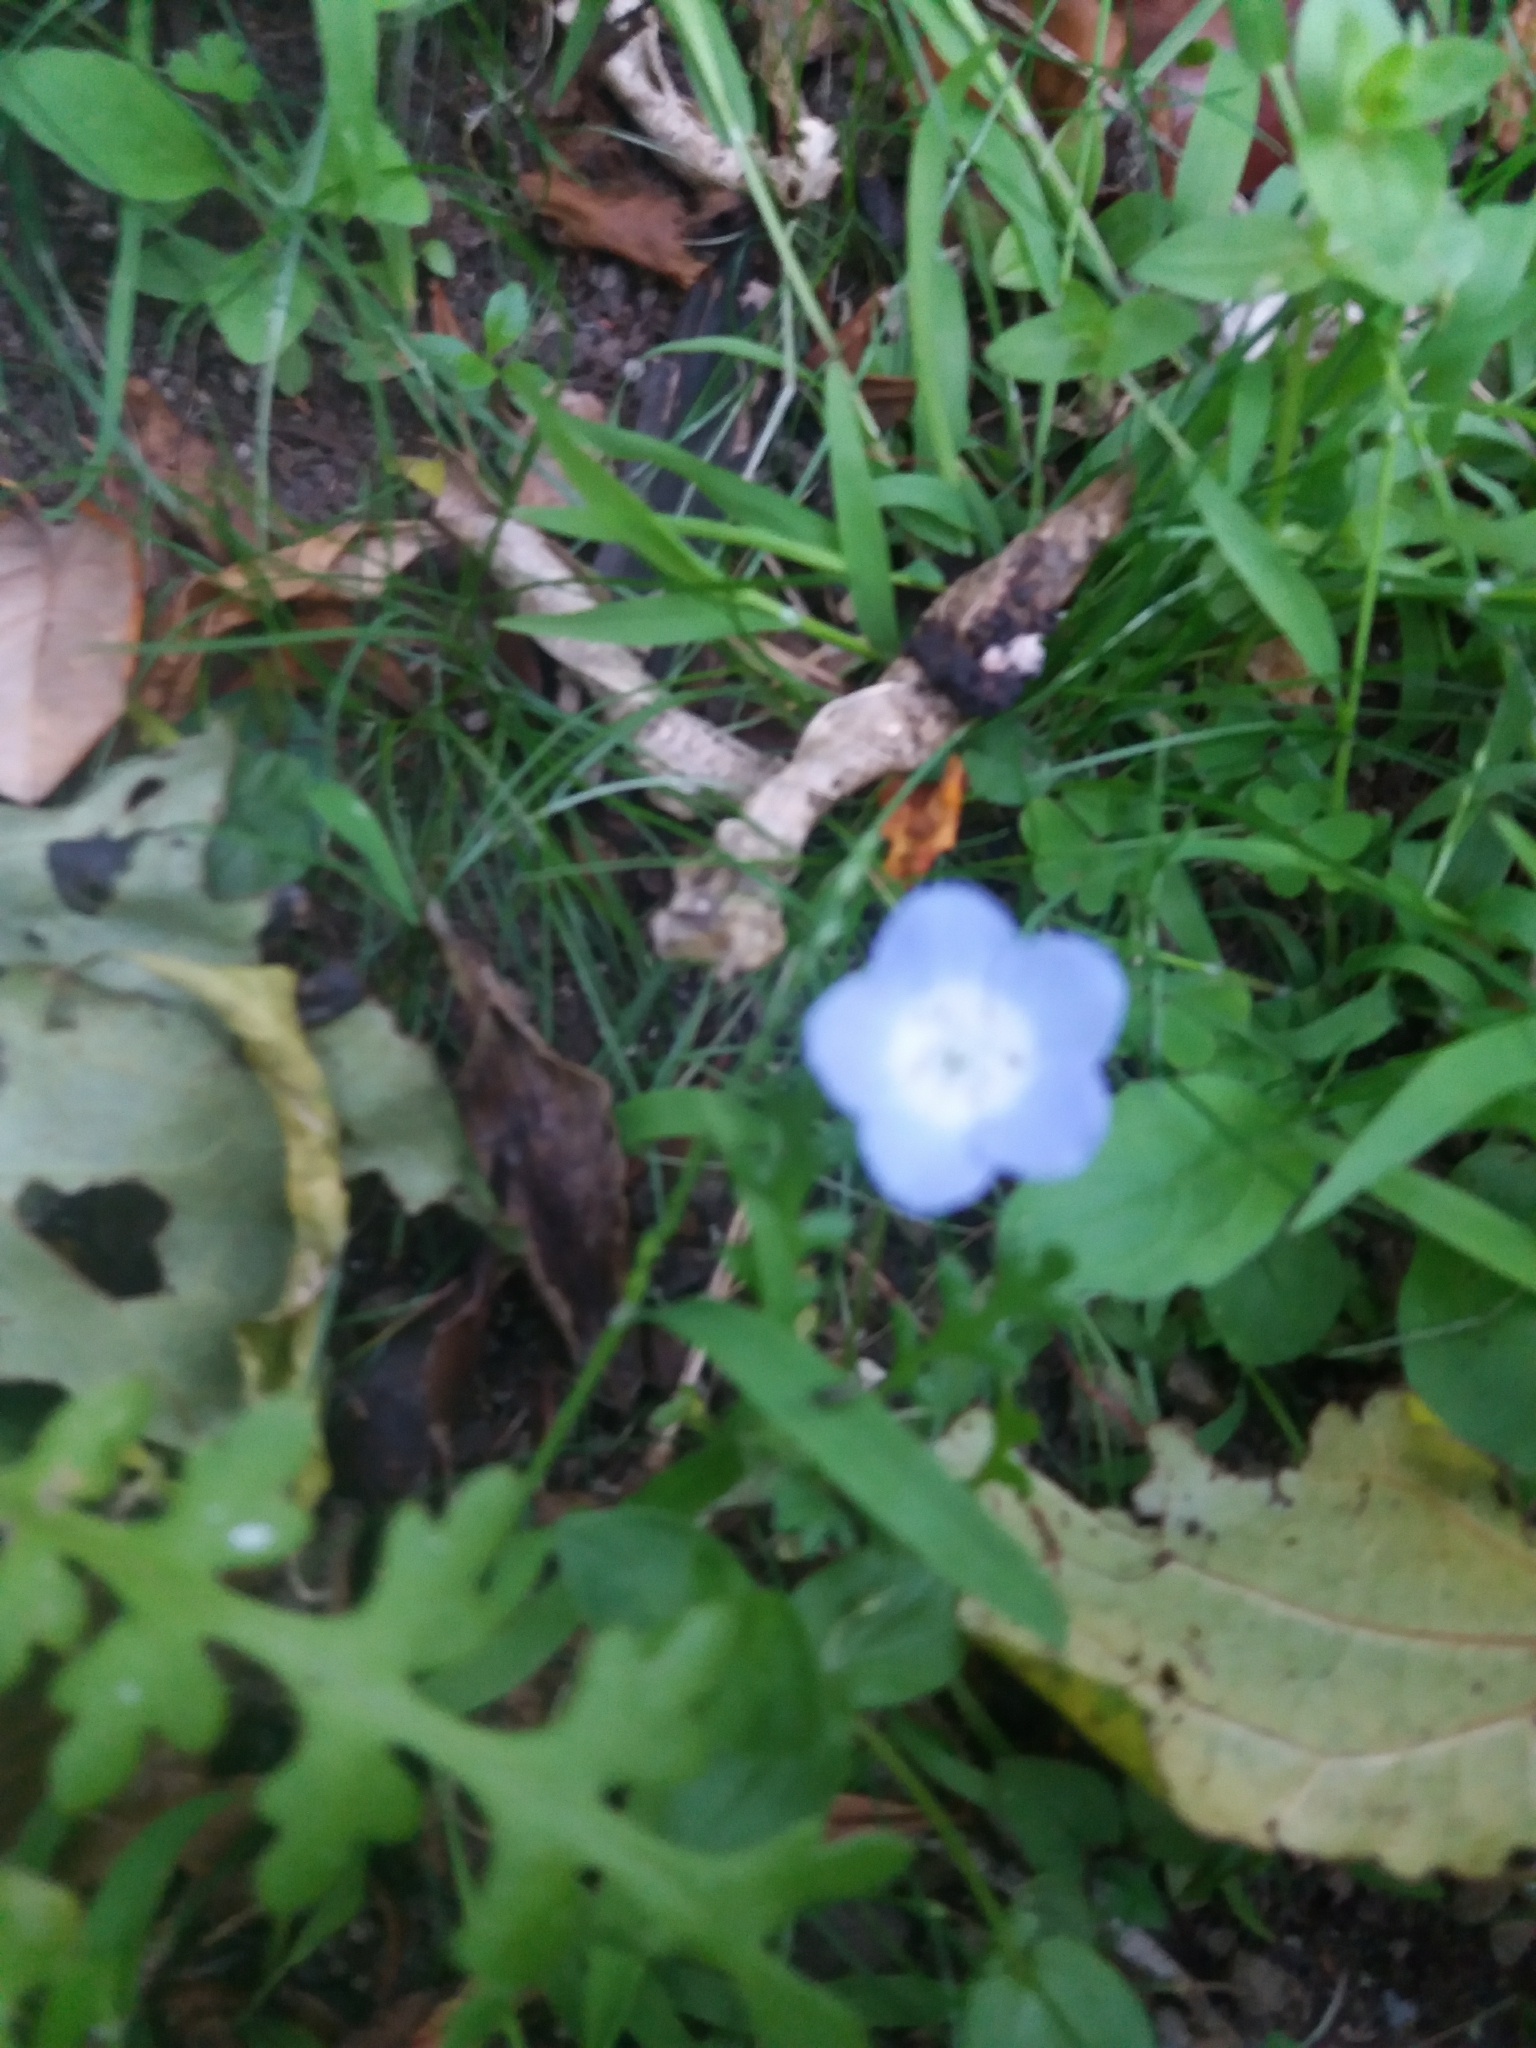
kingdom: Plantae
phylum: Tracheophyta
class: Magnoliopsida
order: Boraginales
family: Hydrophyllaceae
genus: Nemophila
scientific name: Nemophila menziesii
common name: Baby's-blue-eyes
